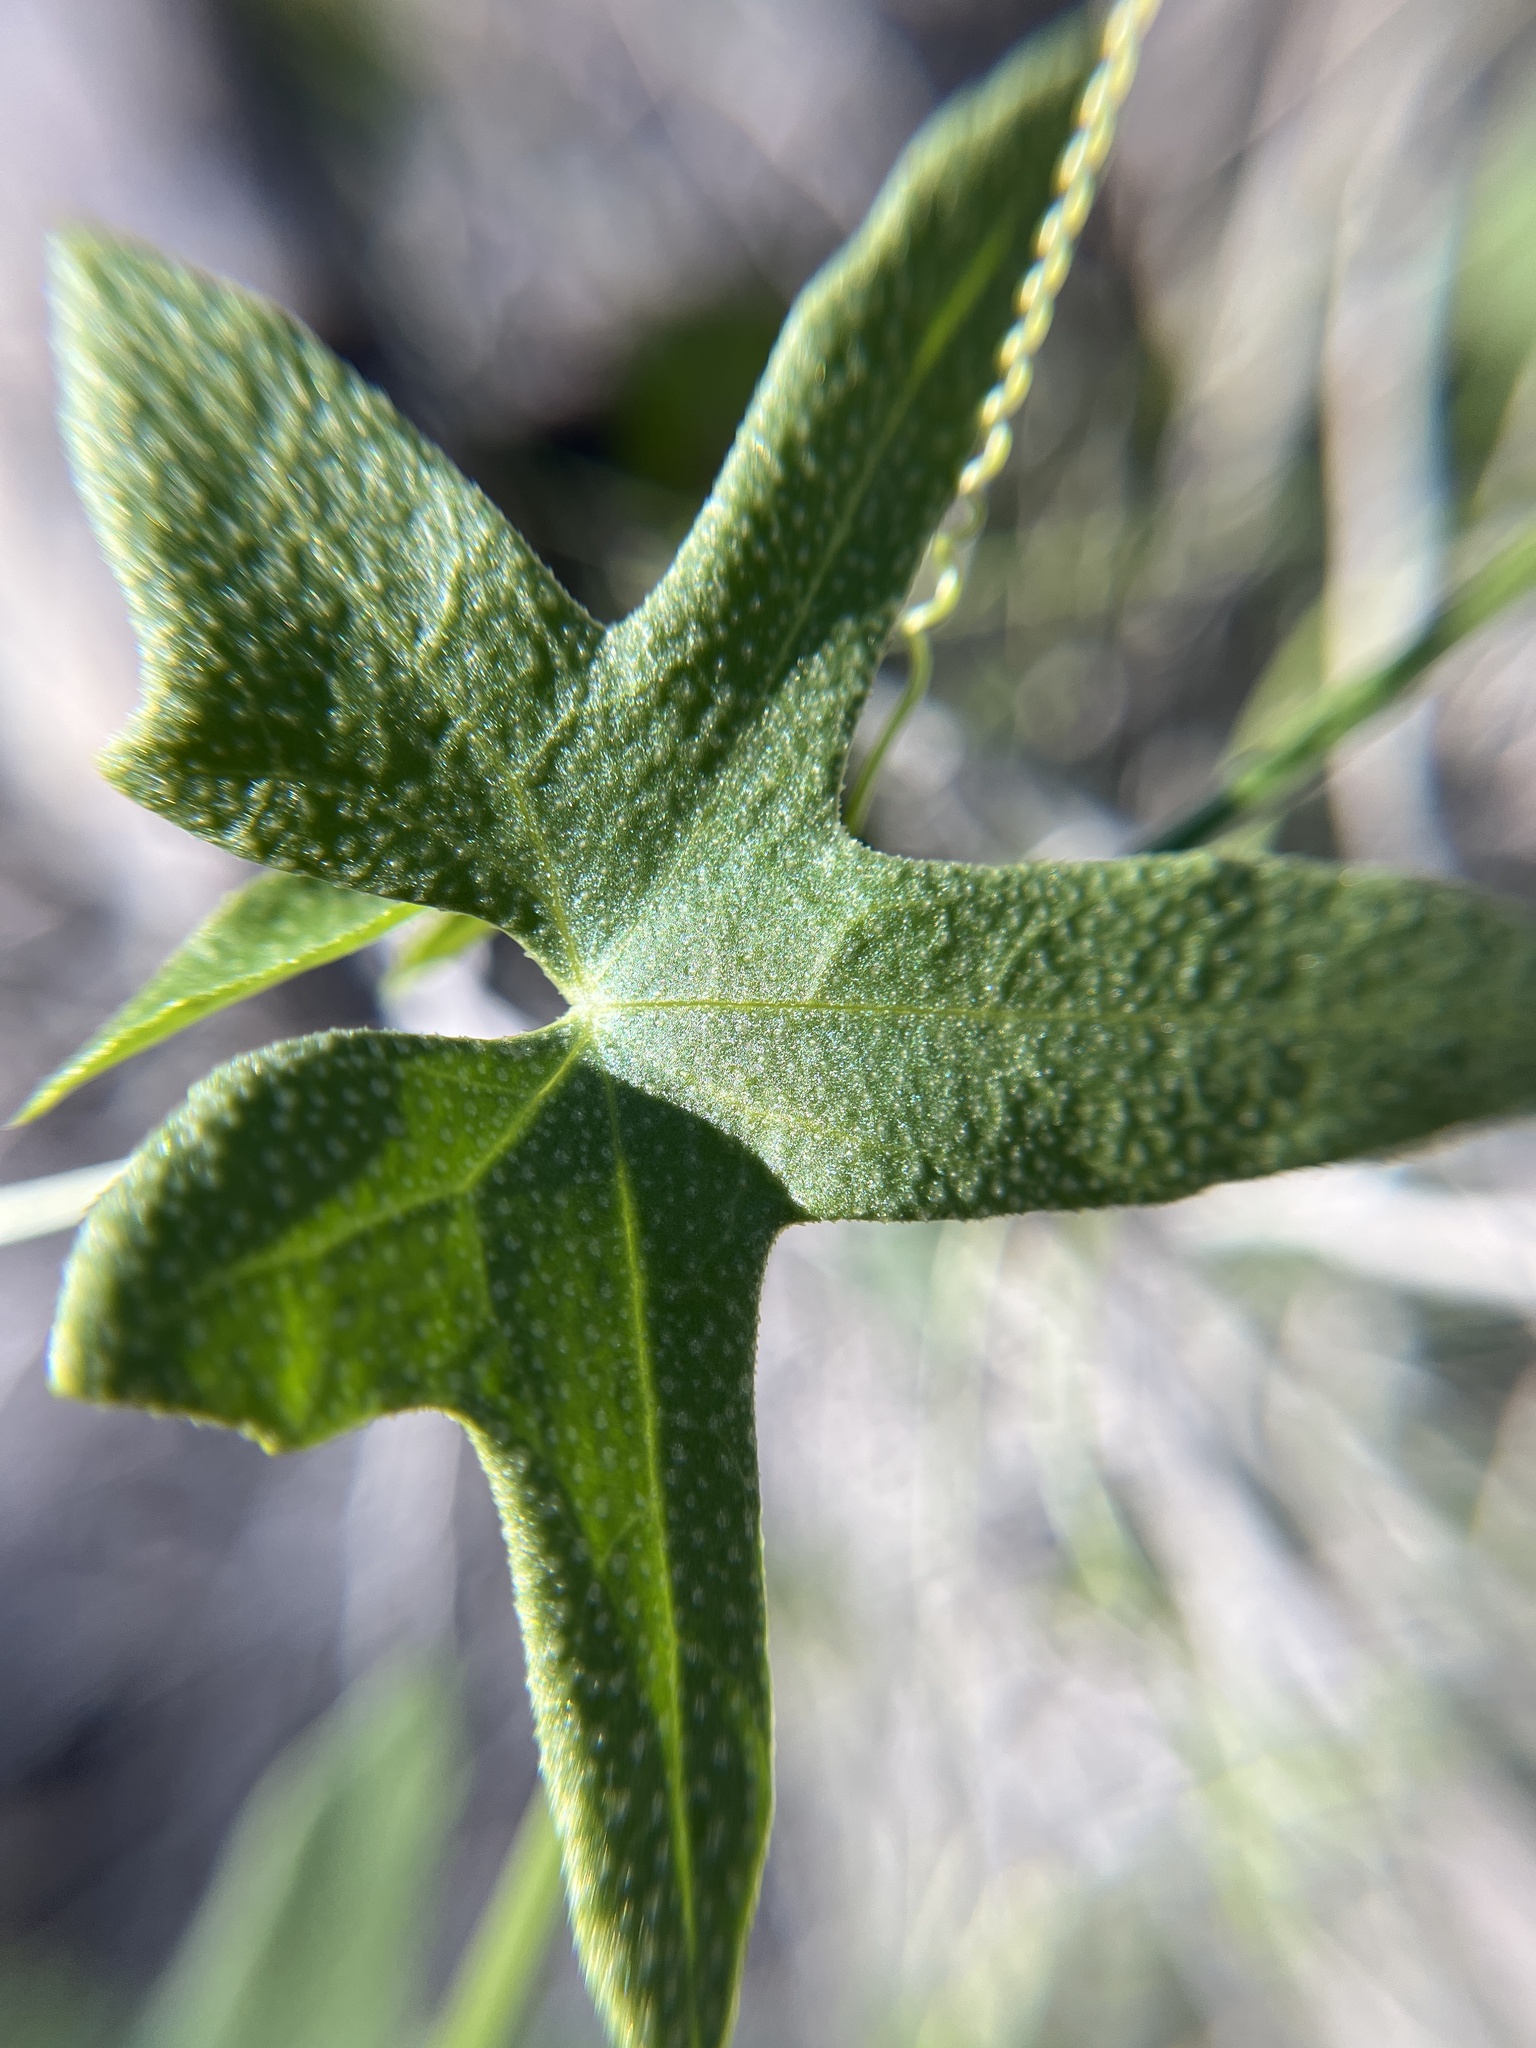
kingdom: Plantae
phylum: Tracheophyta
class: Magnoliopsida
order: Cucurbitales
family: Cucurbitaceae
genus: Echinopepon
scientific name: Echinopepon bigelovii
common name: Desert starvine
